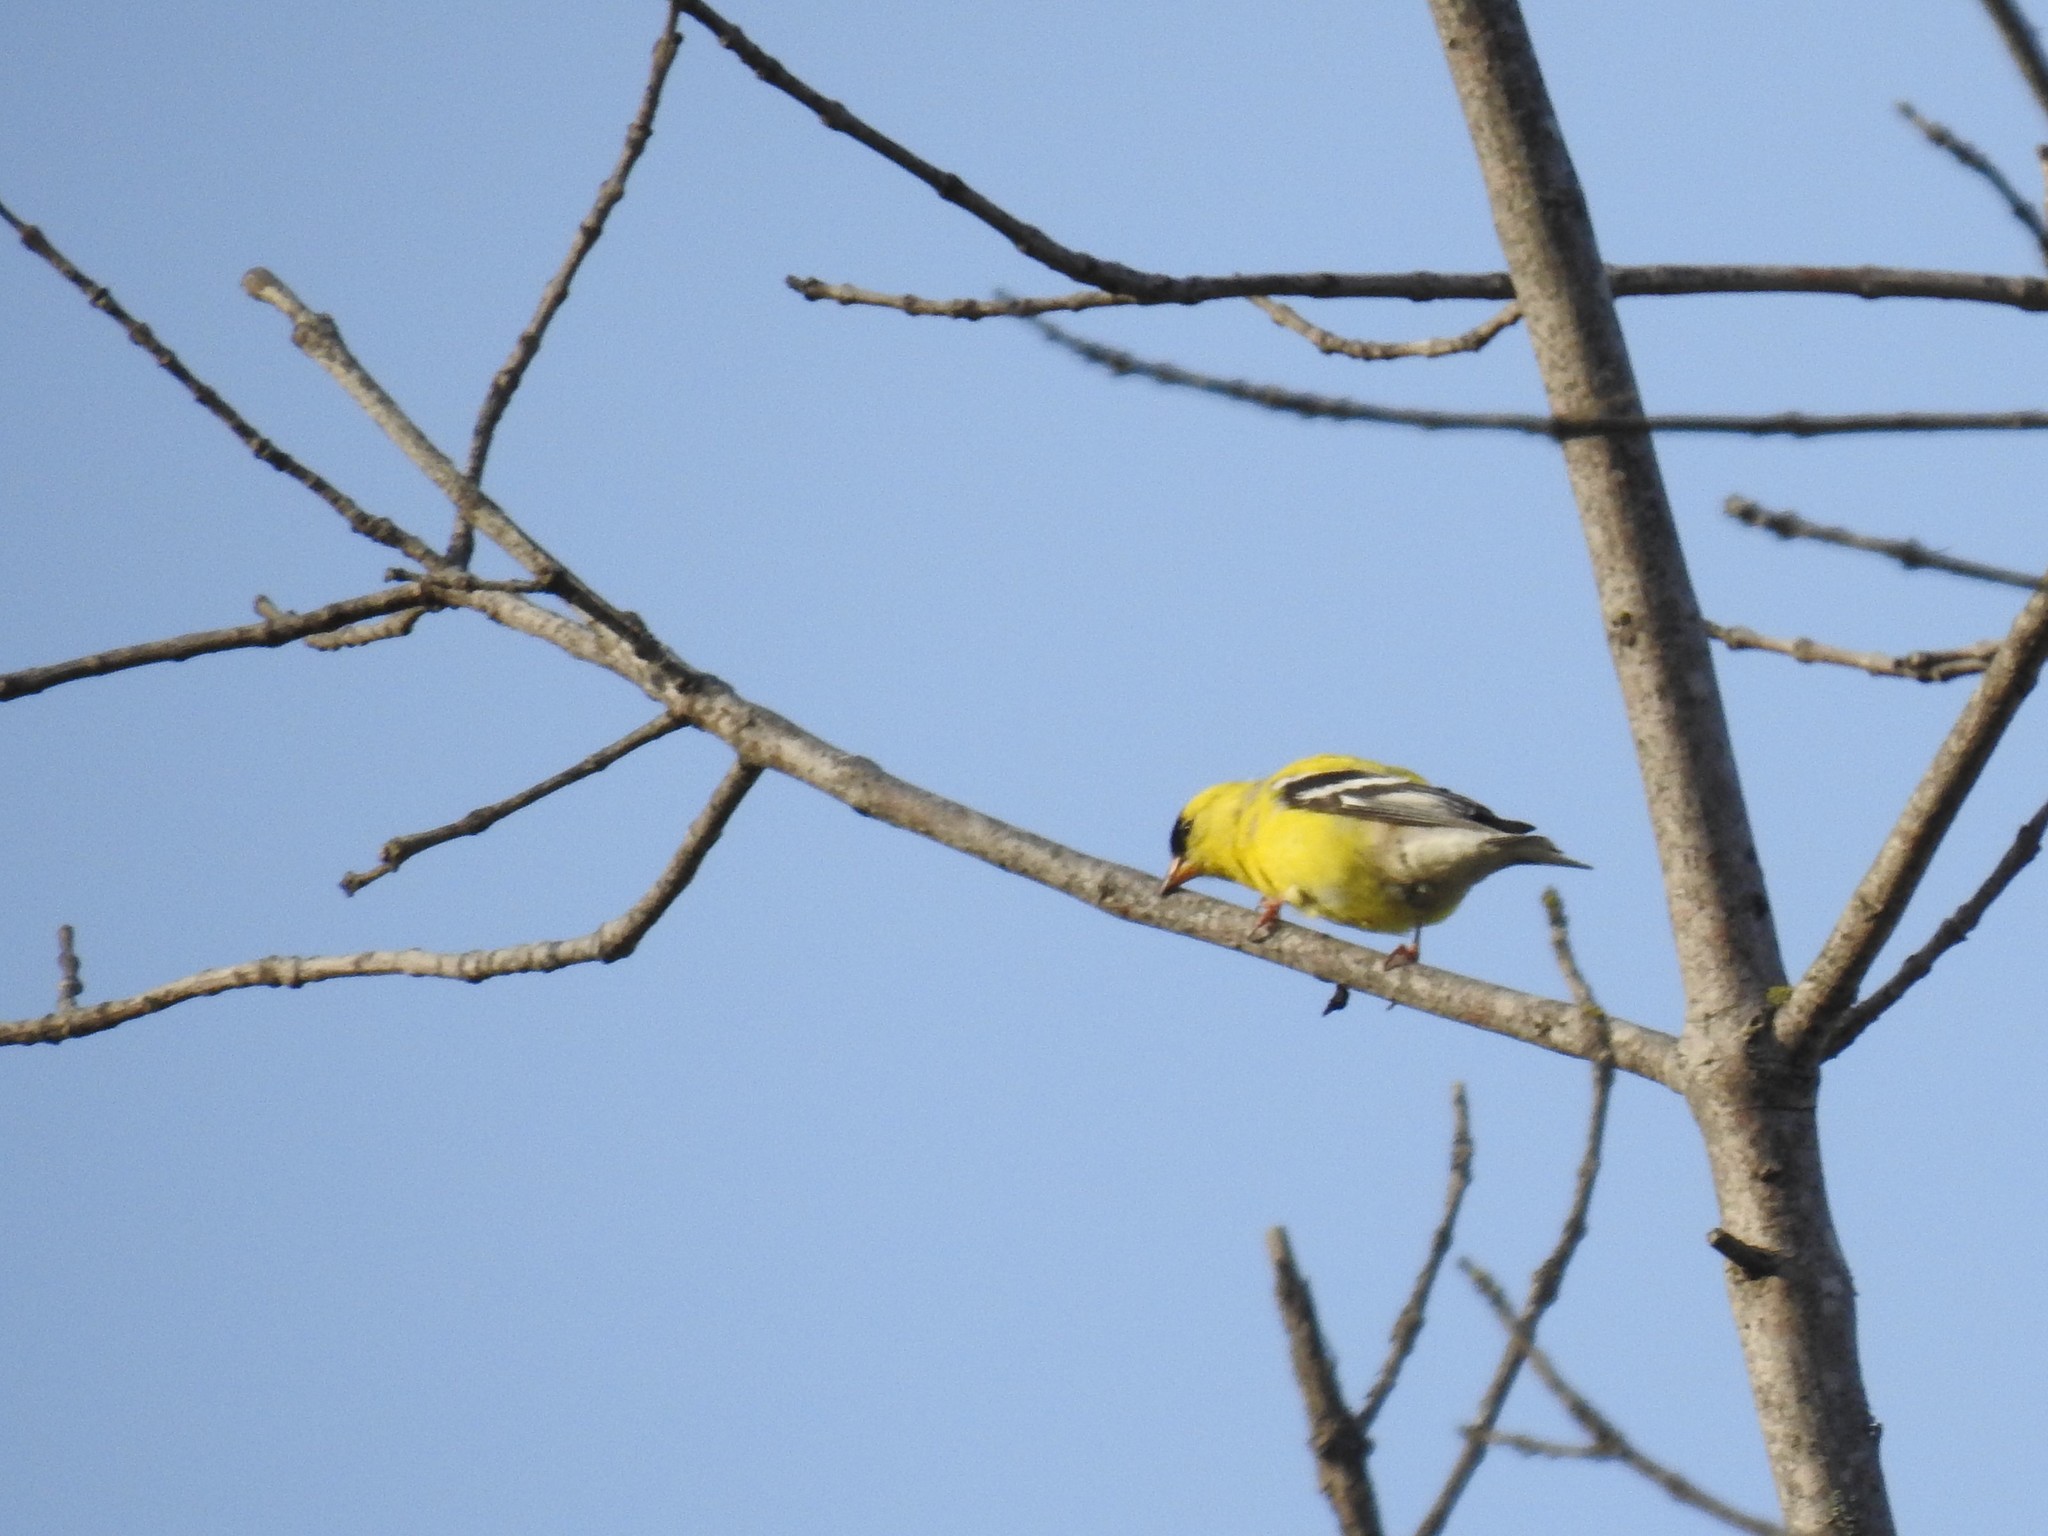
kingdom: Animalia
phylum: Chordata
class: Aves
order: Passeriformes
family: Fringillidae
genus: Spinus
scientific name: Spinus tristis
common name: American goldfinch
